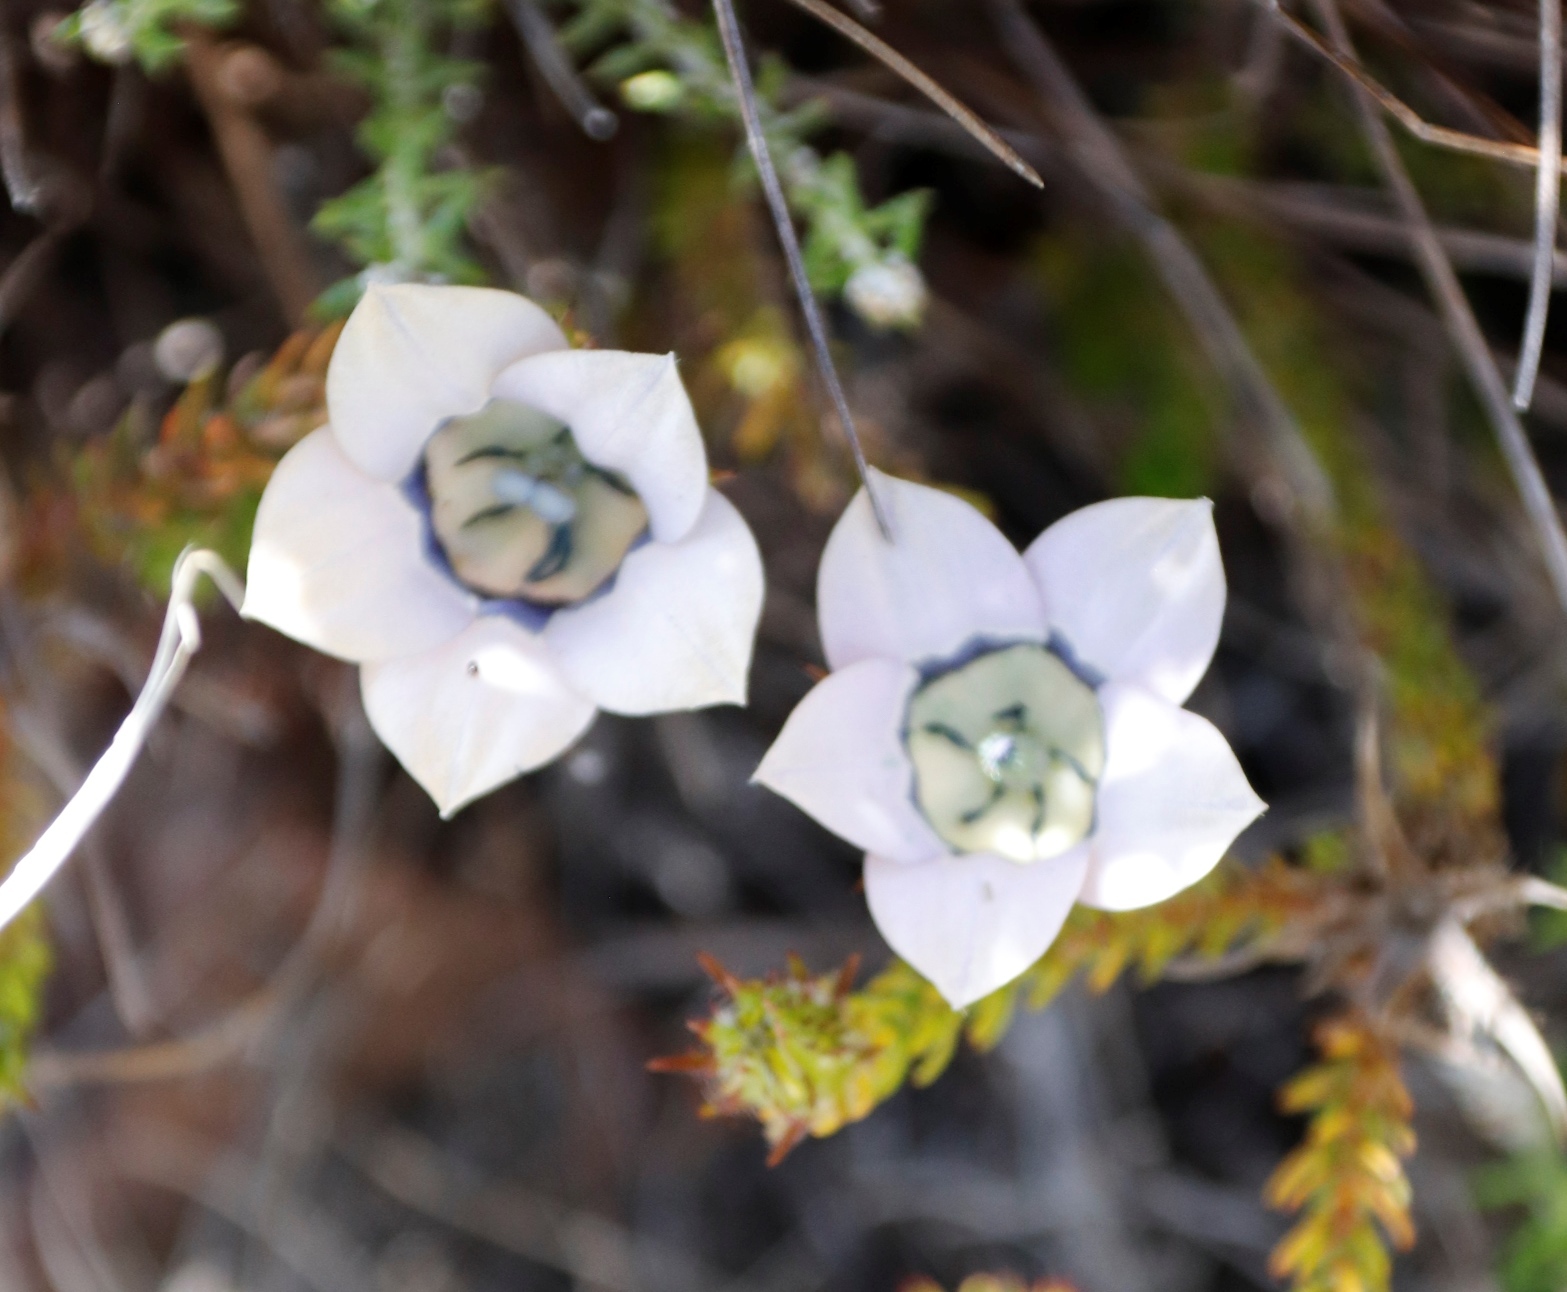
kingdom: Plantae
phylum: Tracheophyta
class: Magnoliopsida
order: Asterales
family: Campanulaceae
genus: Roella
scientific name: Roella ciliata
